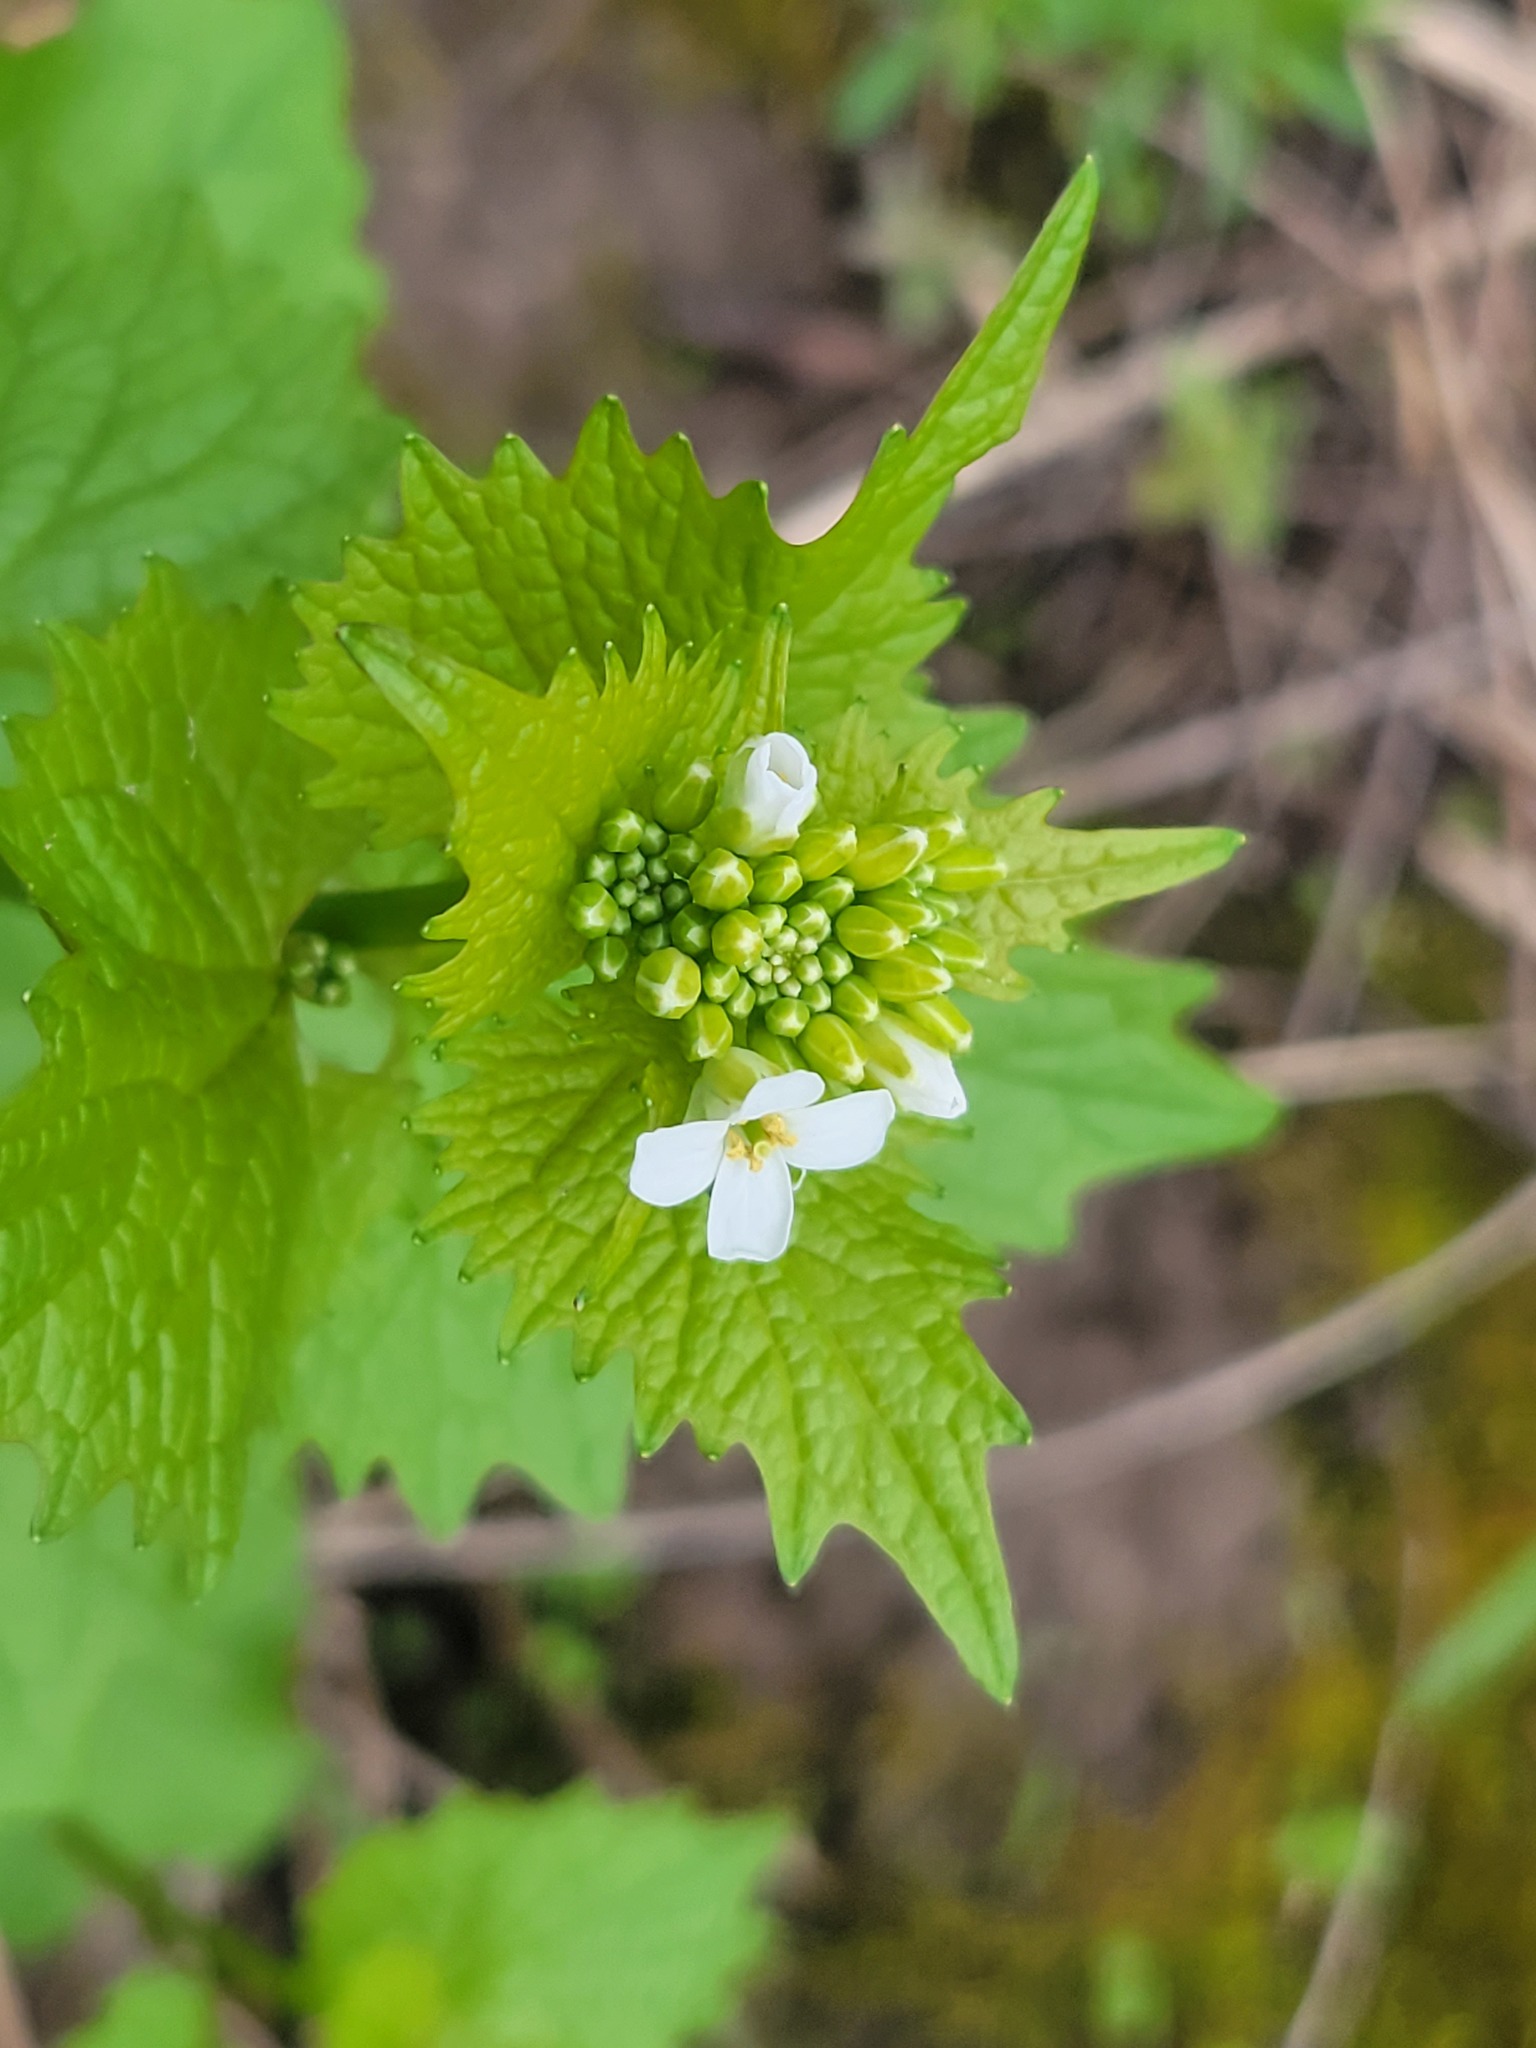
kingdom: Plantae
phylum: Tracheophyta
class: Magnoliopsida
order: Brassicales
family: Brassicaceae
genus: Alliaria
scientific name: Alliaria petiolata
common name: Garlic mustard
